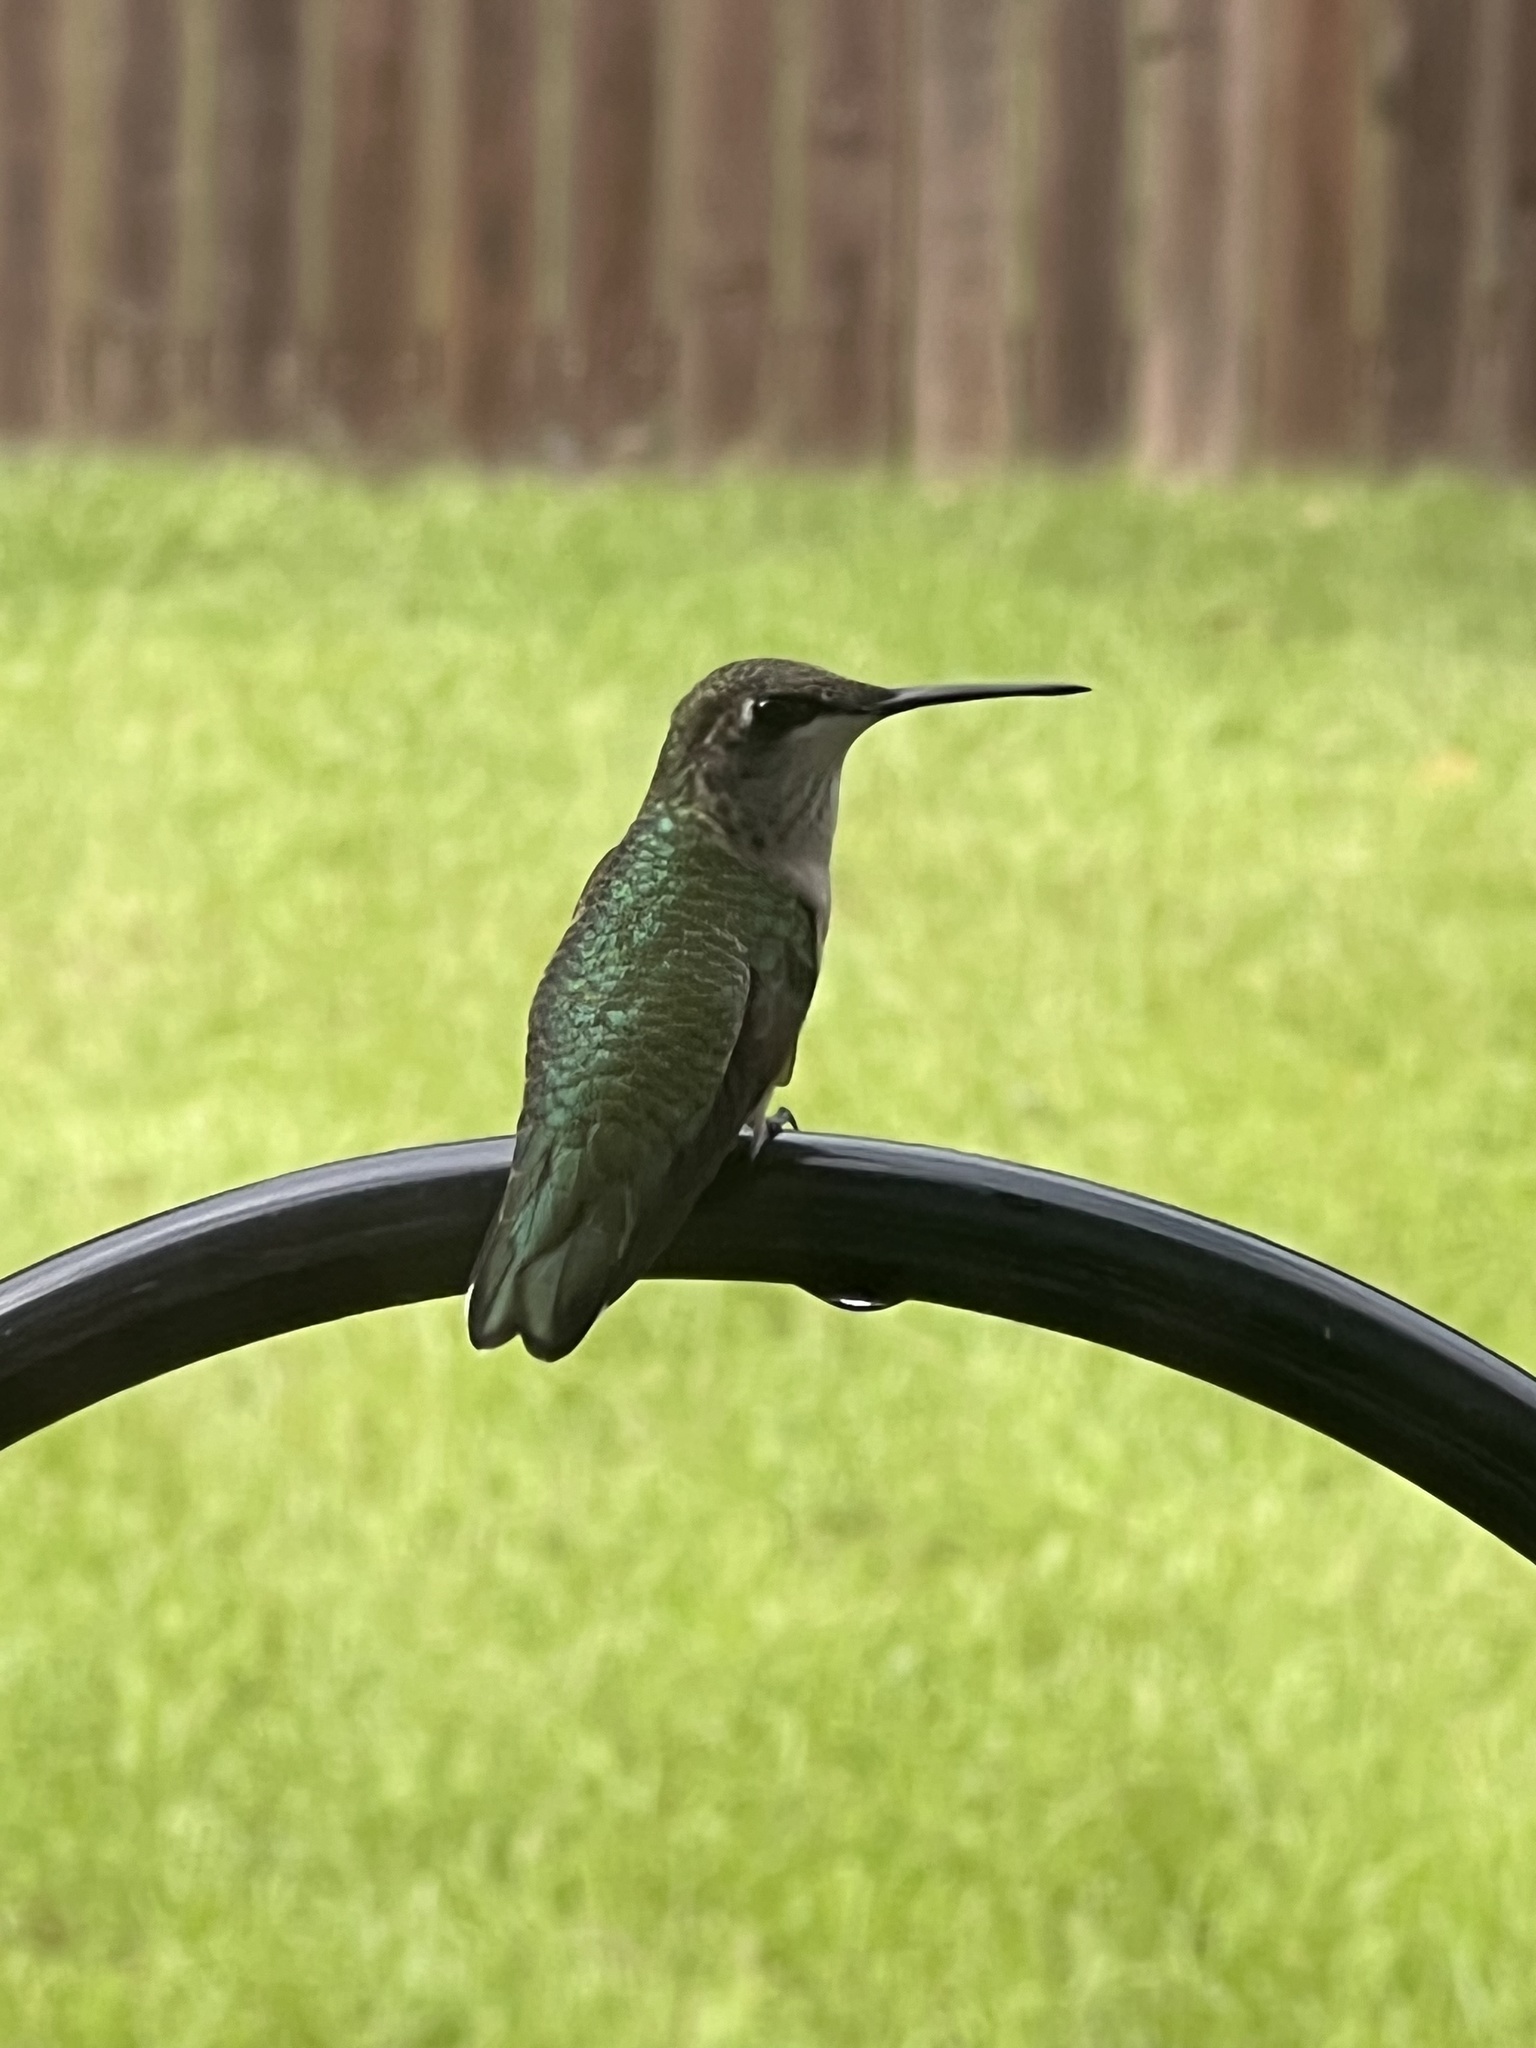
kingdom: Animalia
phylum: Chordata
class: Aves
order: Apodiformes
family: Trochilidae
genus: Archilochus
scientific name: Archilochus colubris
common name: Ruby-throated hummingbird
